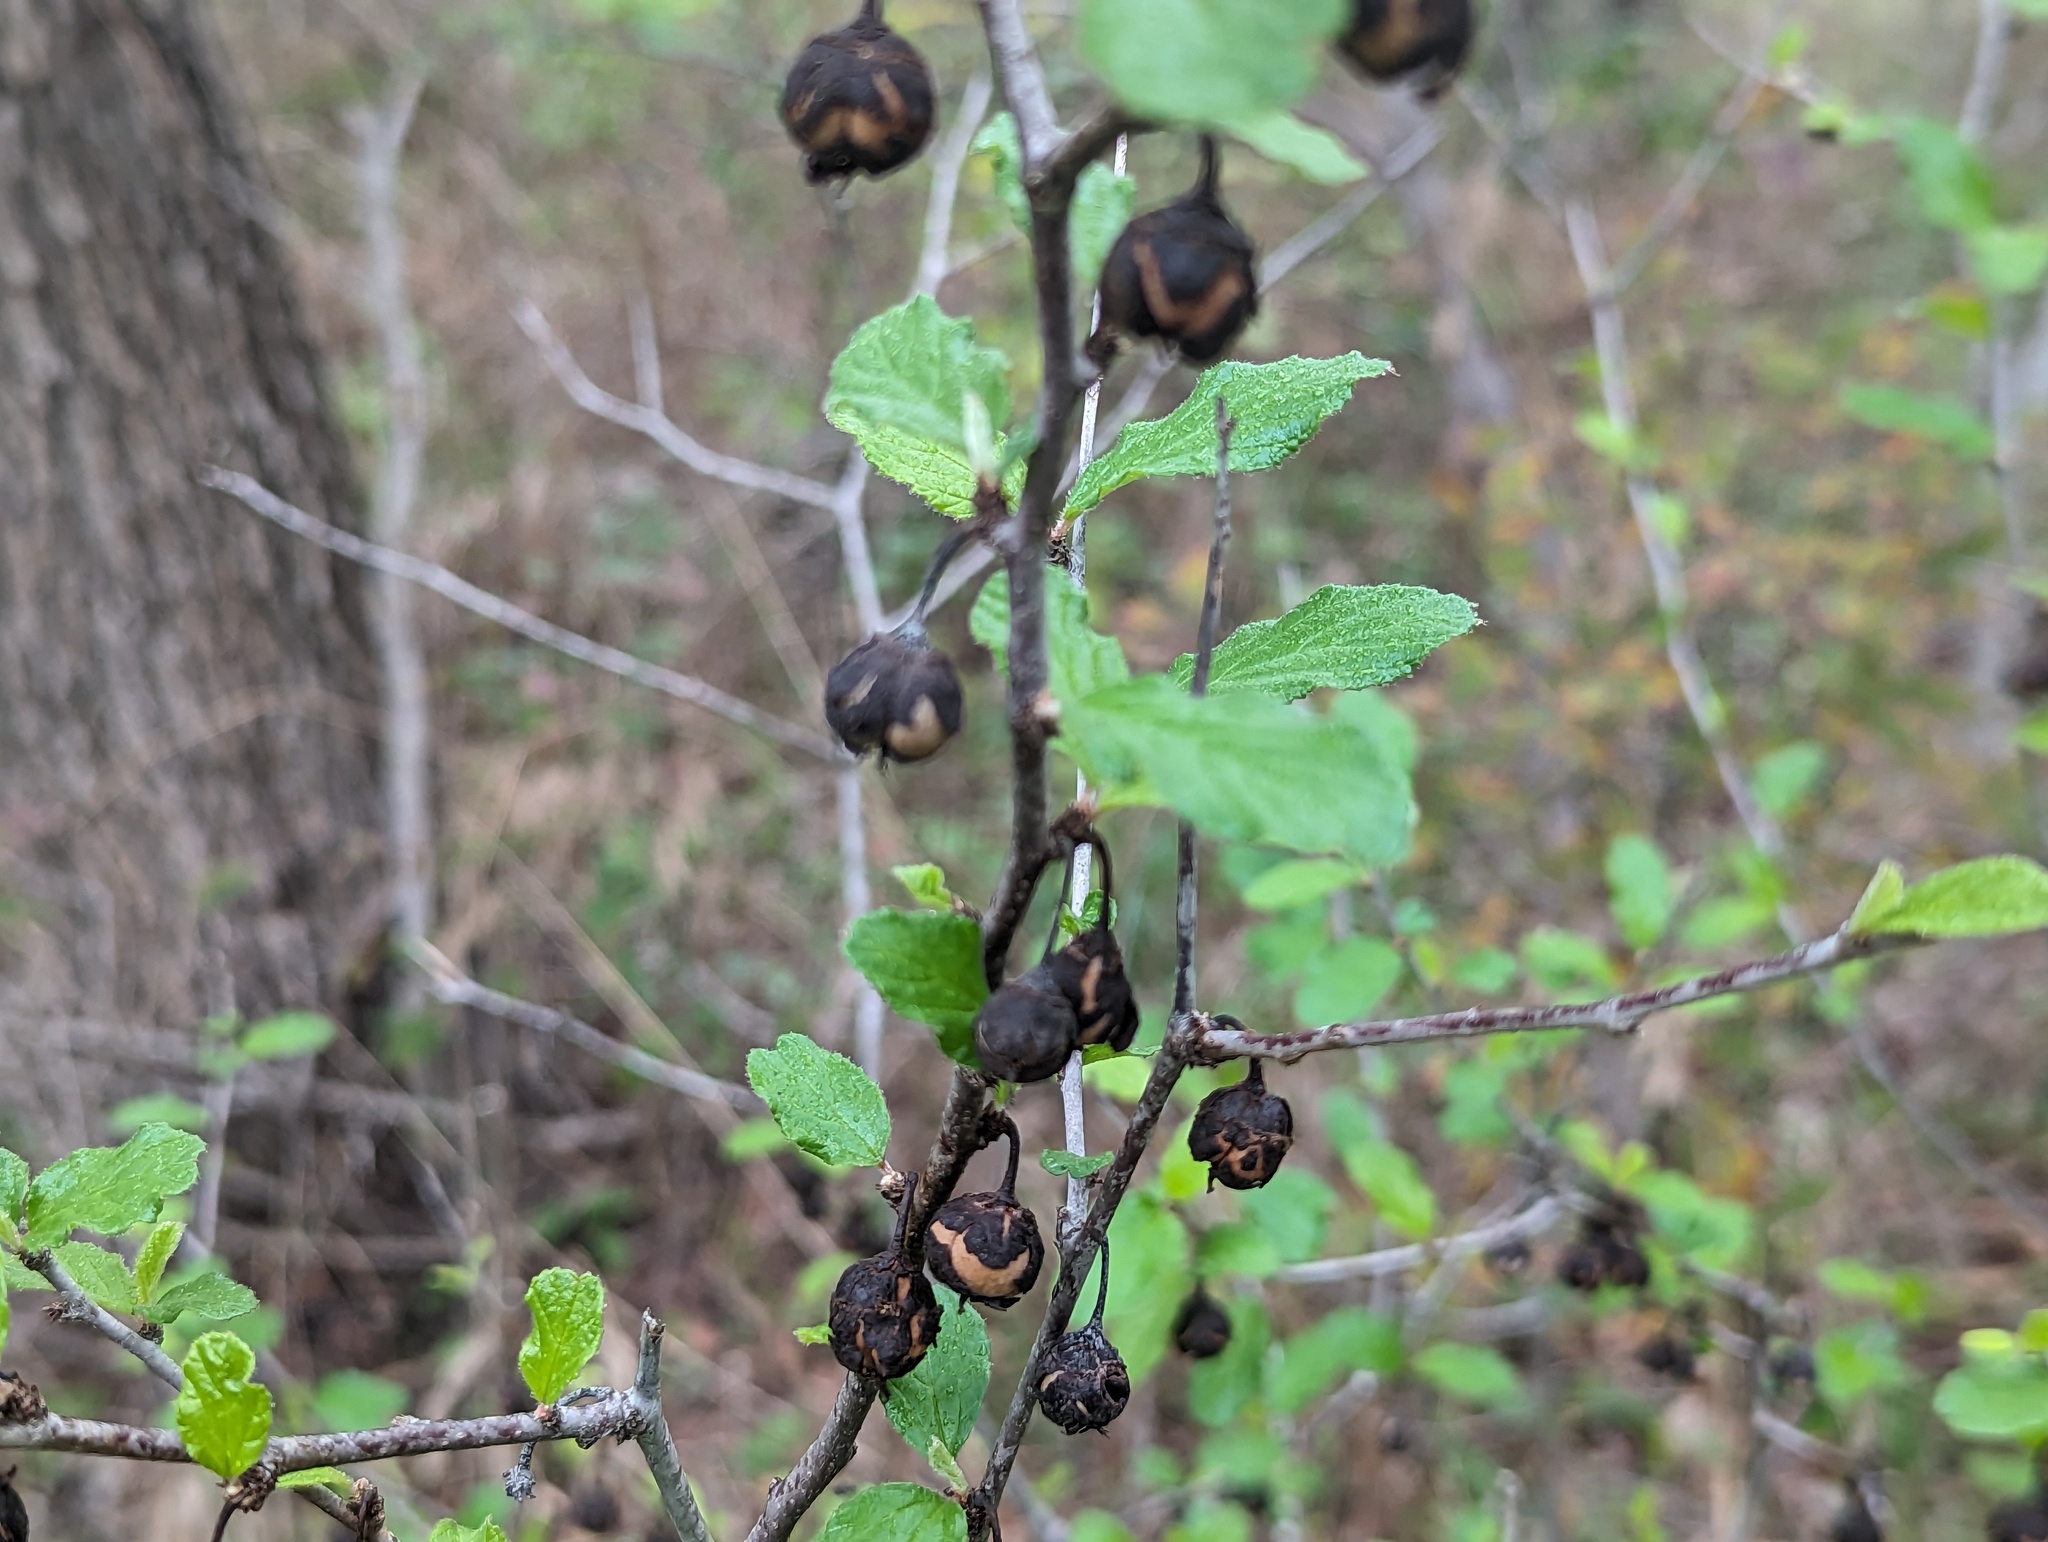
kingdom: Plantae
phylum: Tracheophyta
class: Magnoliopsida
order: Rosales
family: Rhamnaceae
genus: Colubrina
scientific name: Colubrina texensis
